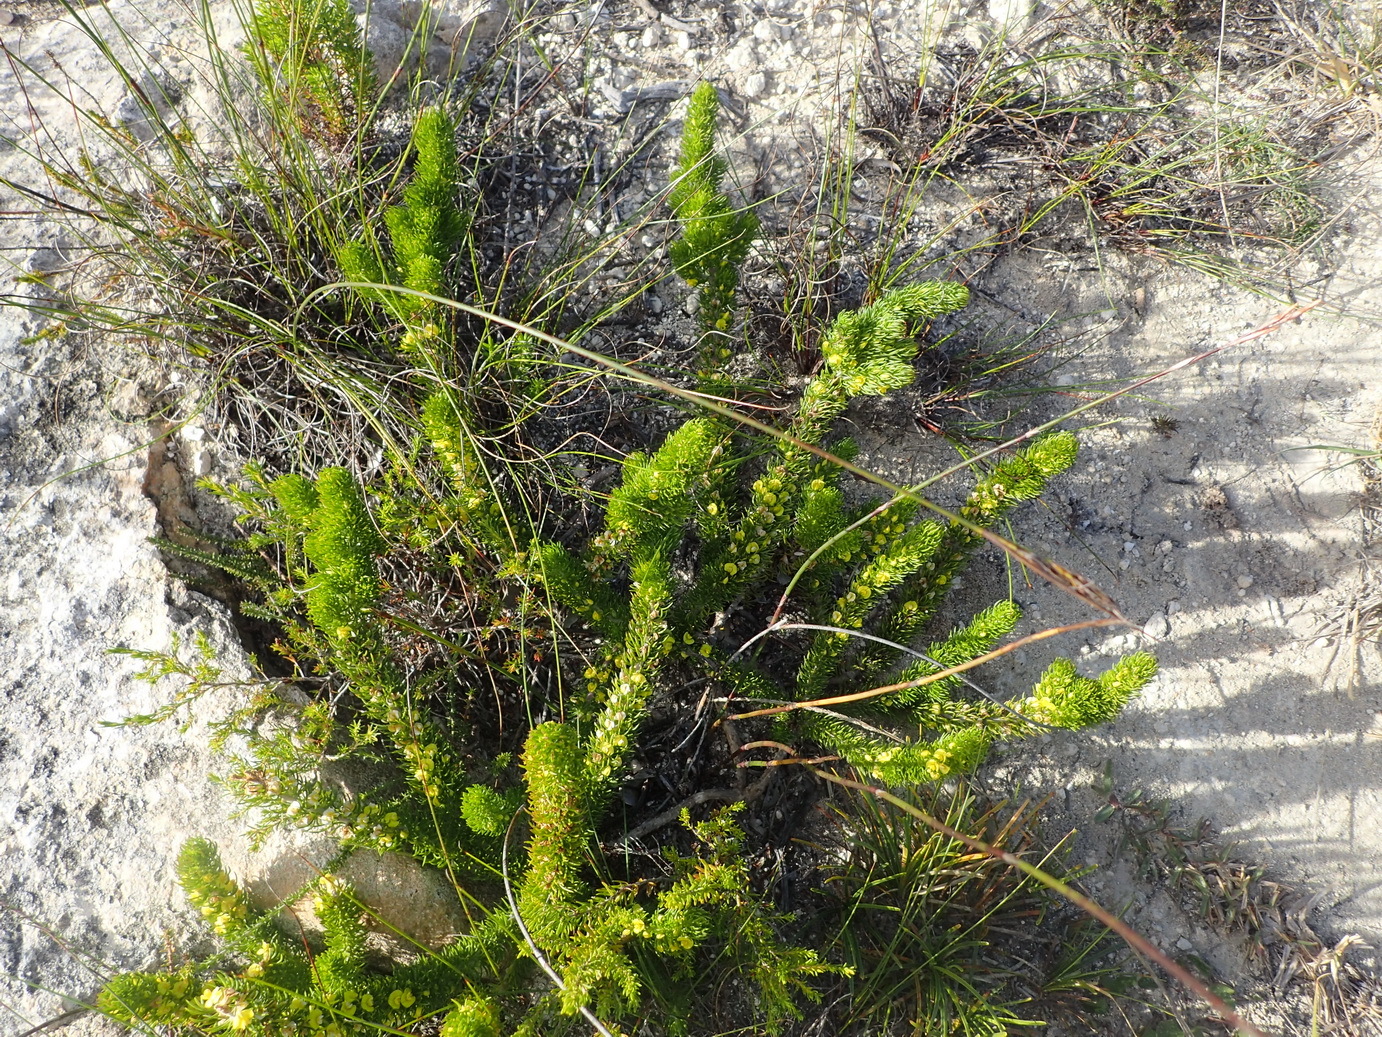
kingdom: Plantae
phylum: Tracheophyta
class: Magnoliopsida
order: Fabales
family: Fabaceae
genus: Aspalathus
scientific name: Aspalathus alopecurus
